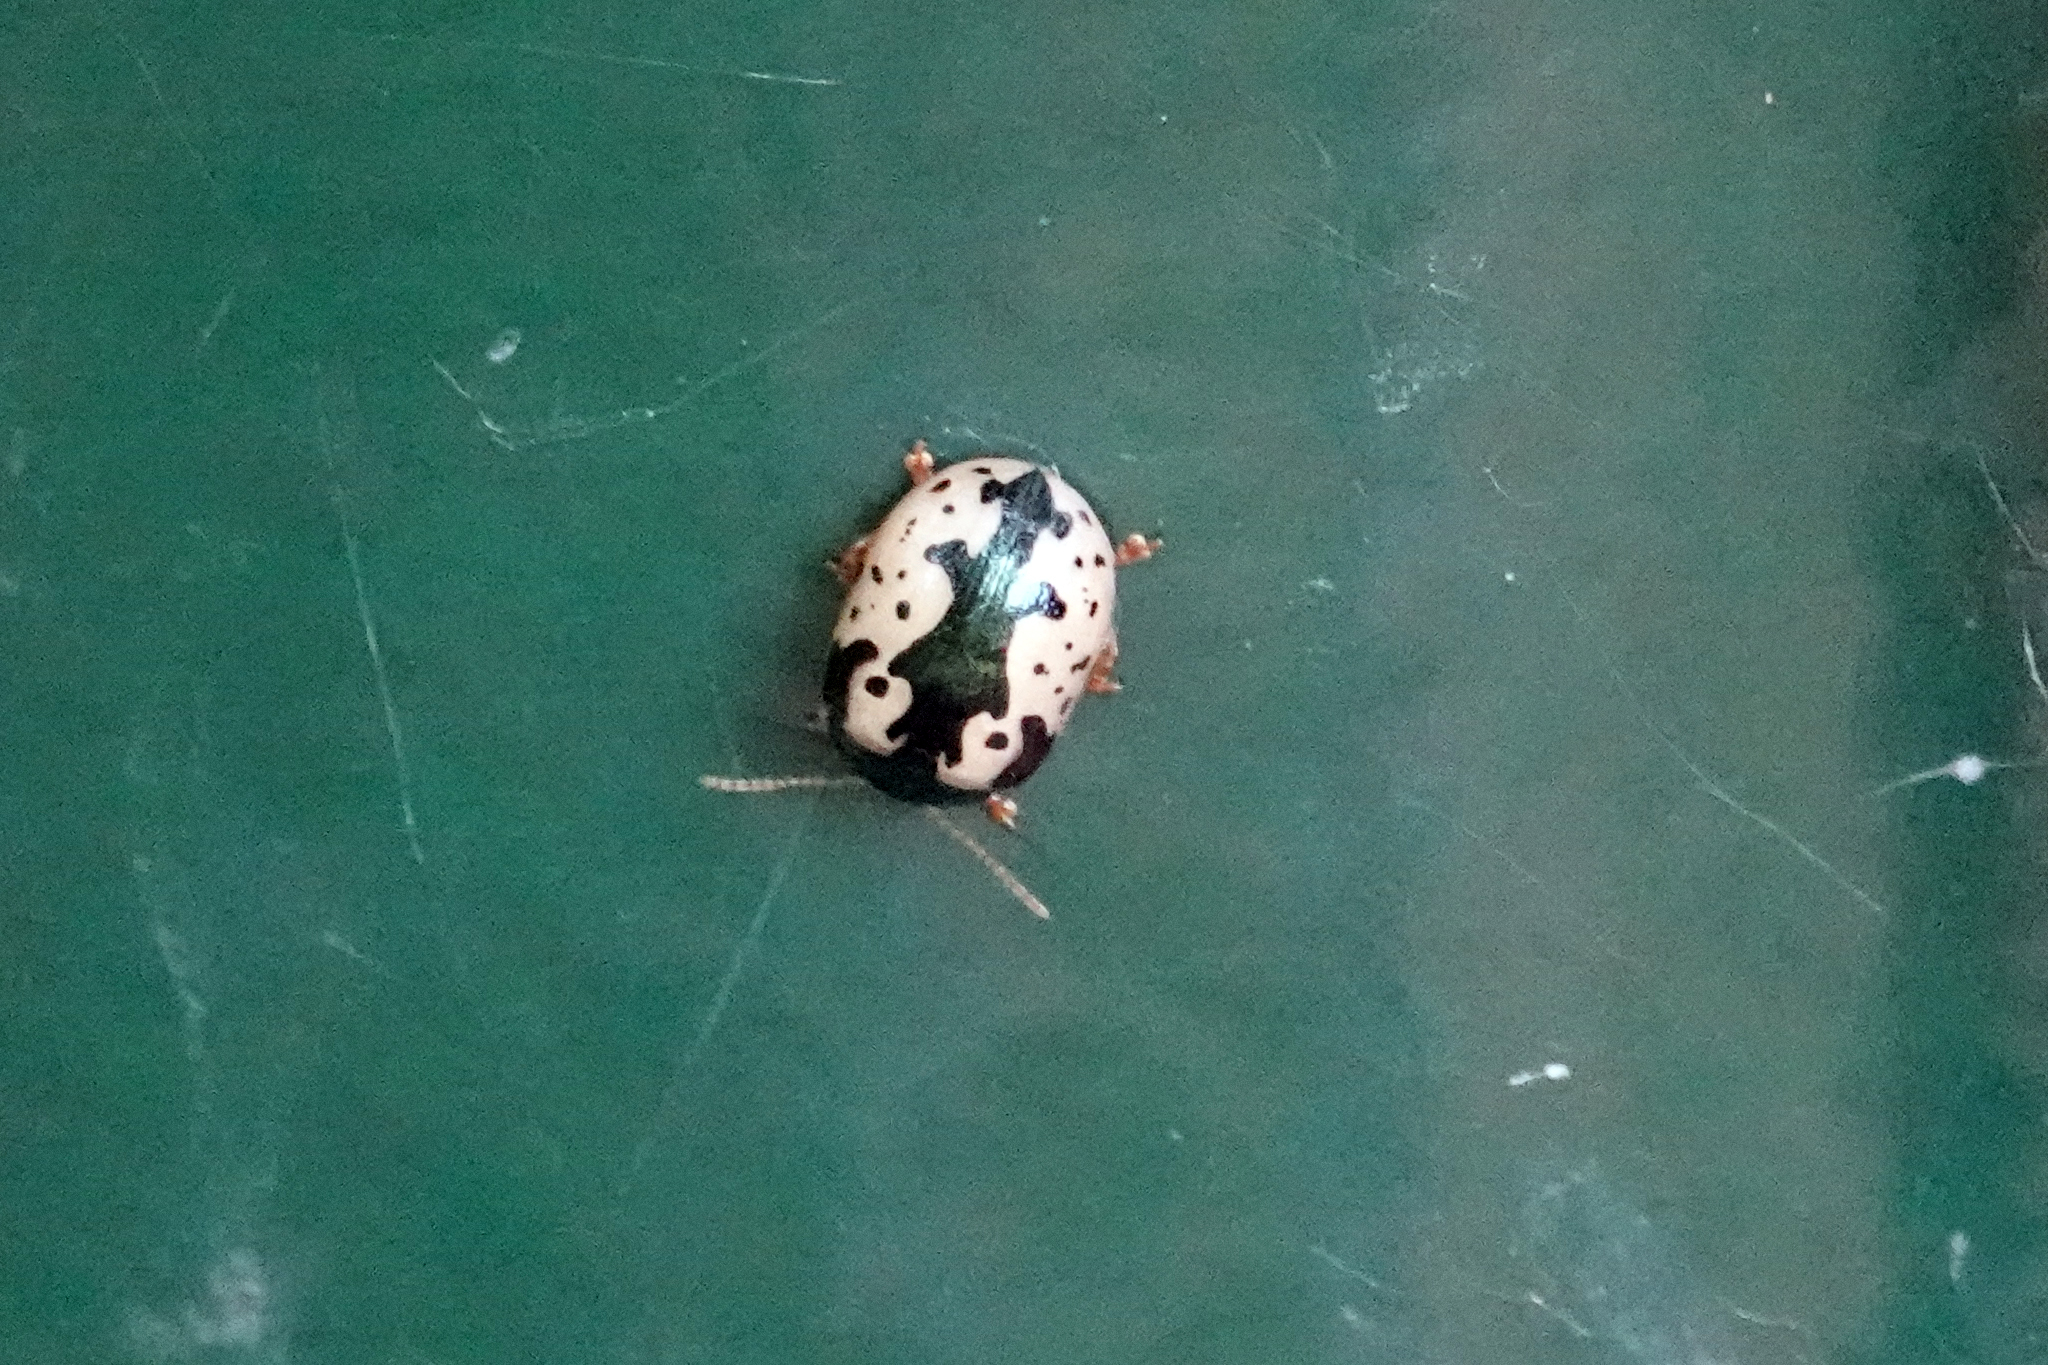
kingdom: Animalia
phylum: Arthropoda
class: Insecta
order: Coleoptera
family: Chrysomelidae
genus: Calligrapha
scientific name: Calligrapha scalaris
